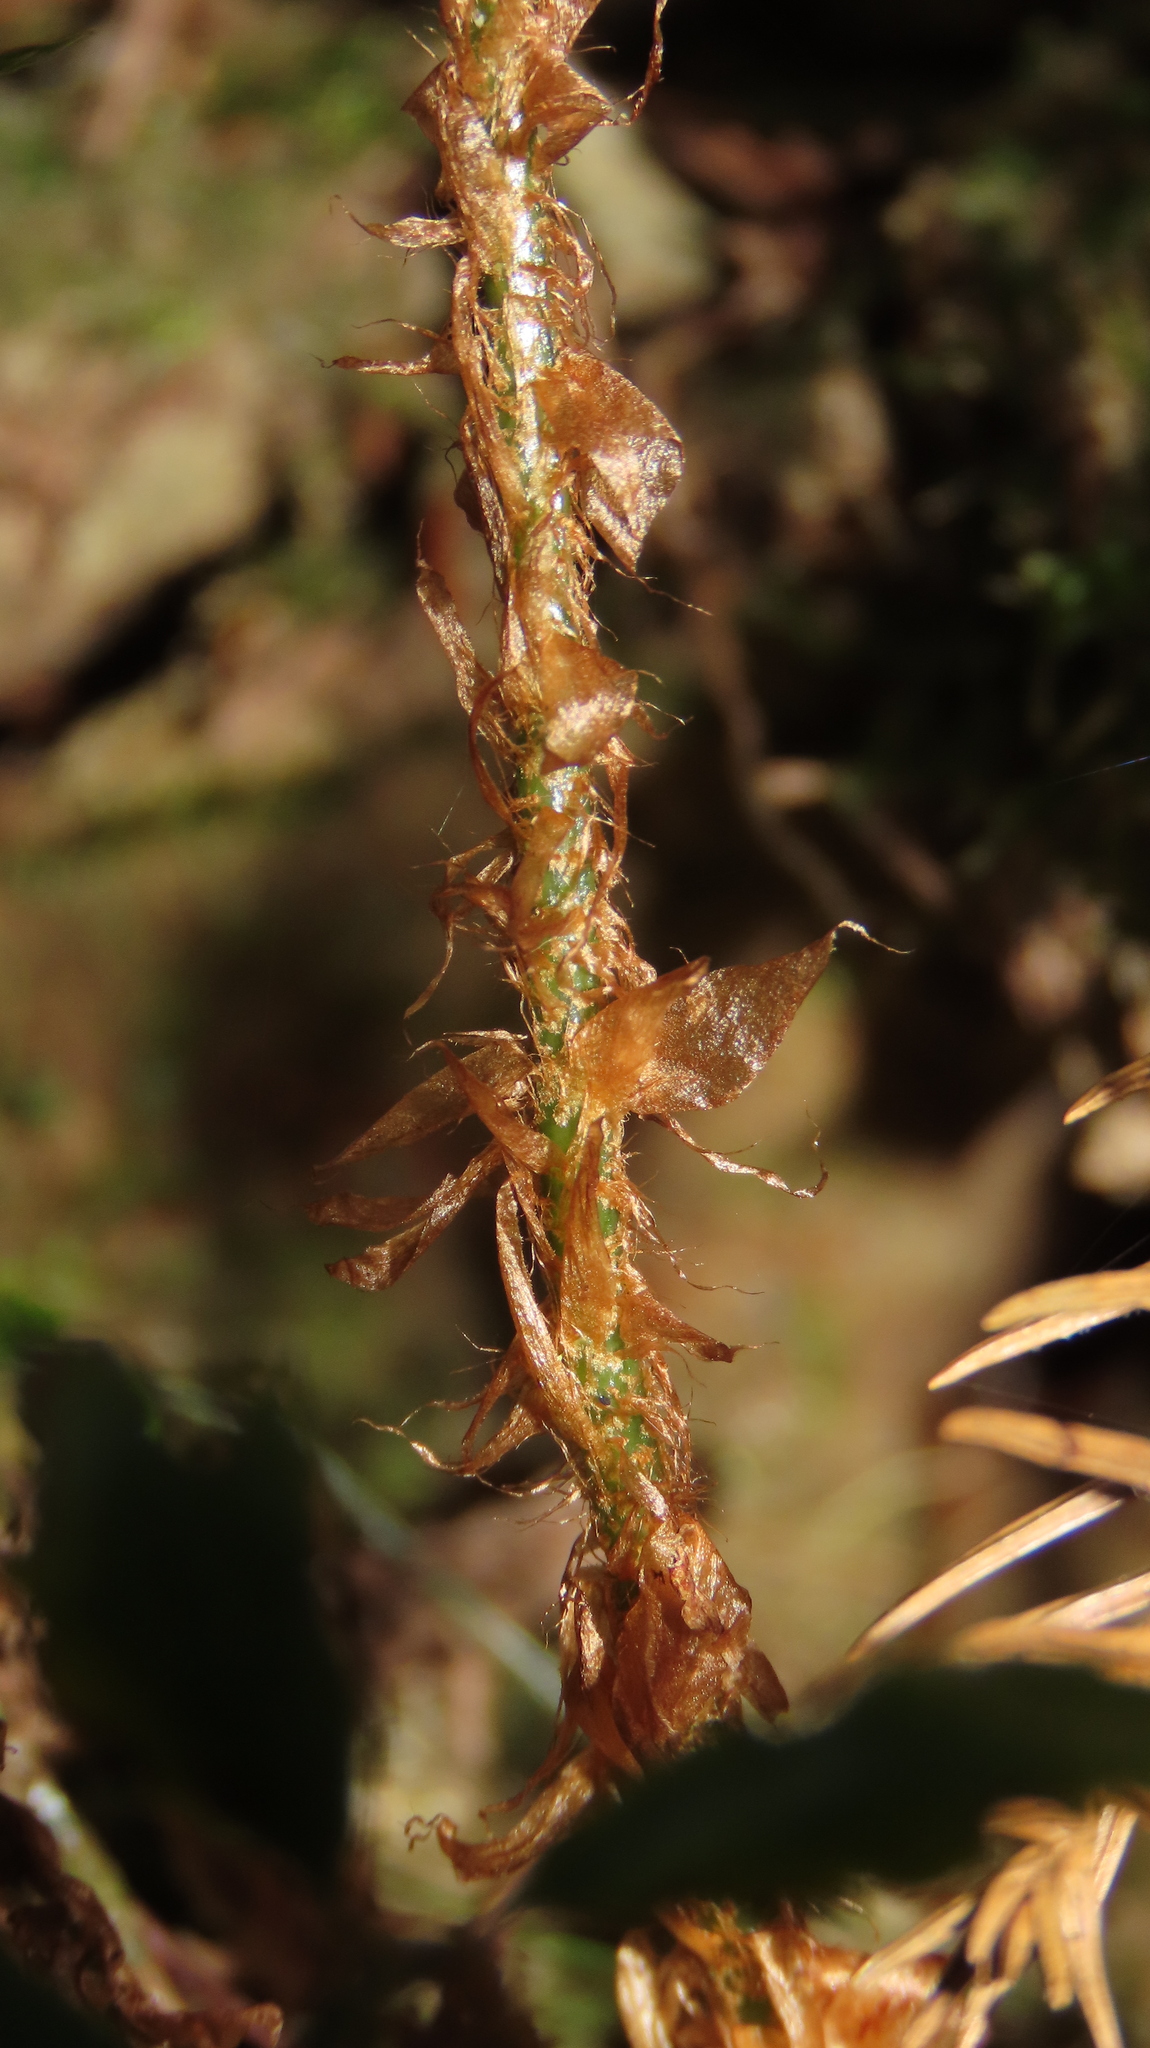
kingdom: Plantae
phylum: Tracheophyta
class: Polypodiopsida
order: Polypodiales
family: Dryopteridaceae
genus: Polystichum
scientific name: Polystichum prionolepis
